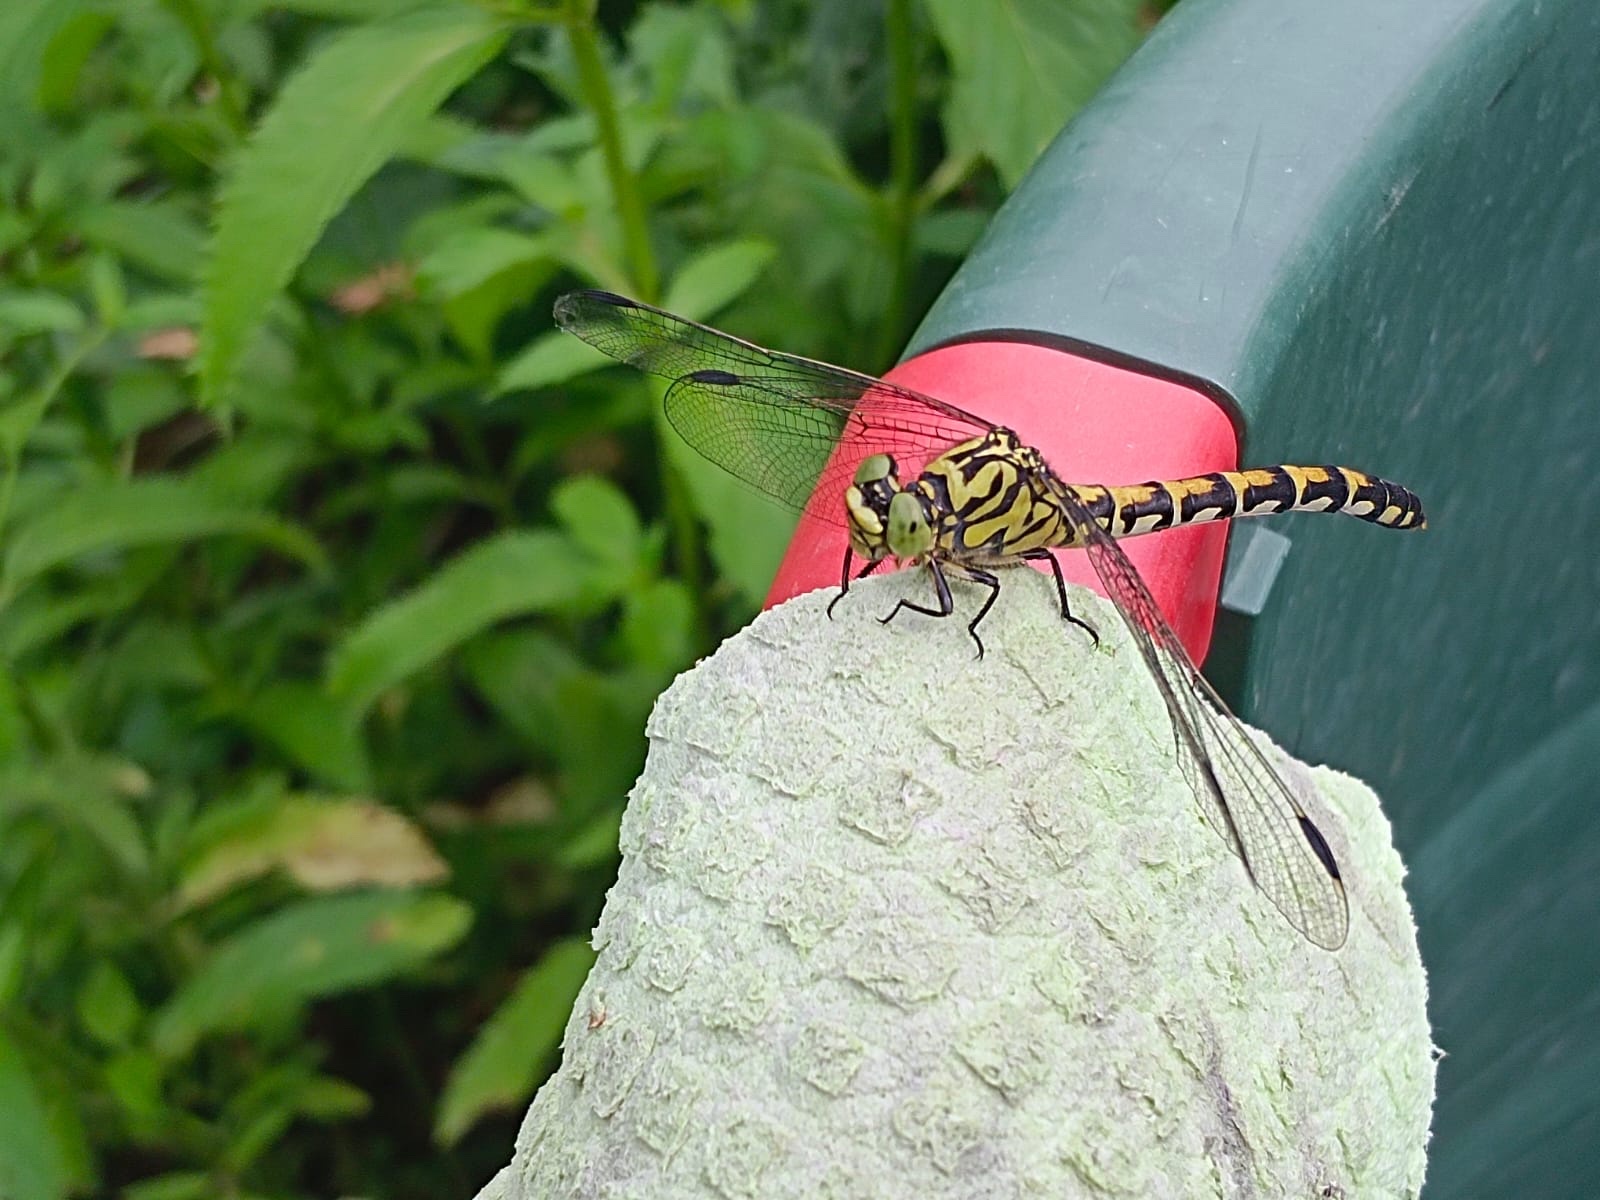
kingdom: Animalia
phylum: Arthropoda
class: Insecta
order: Odonata
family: Gomphidae
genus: Onychogomphus
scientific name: Onychogomphus forcipatus
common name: Small pincertail
